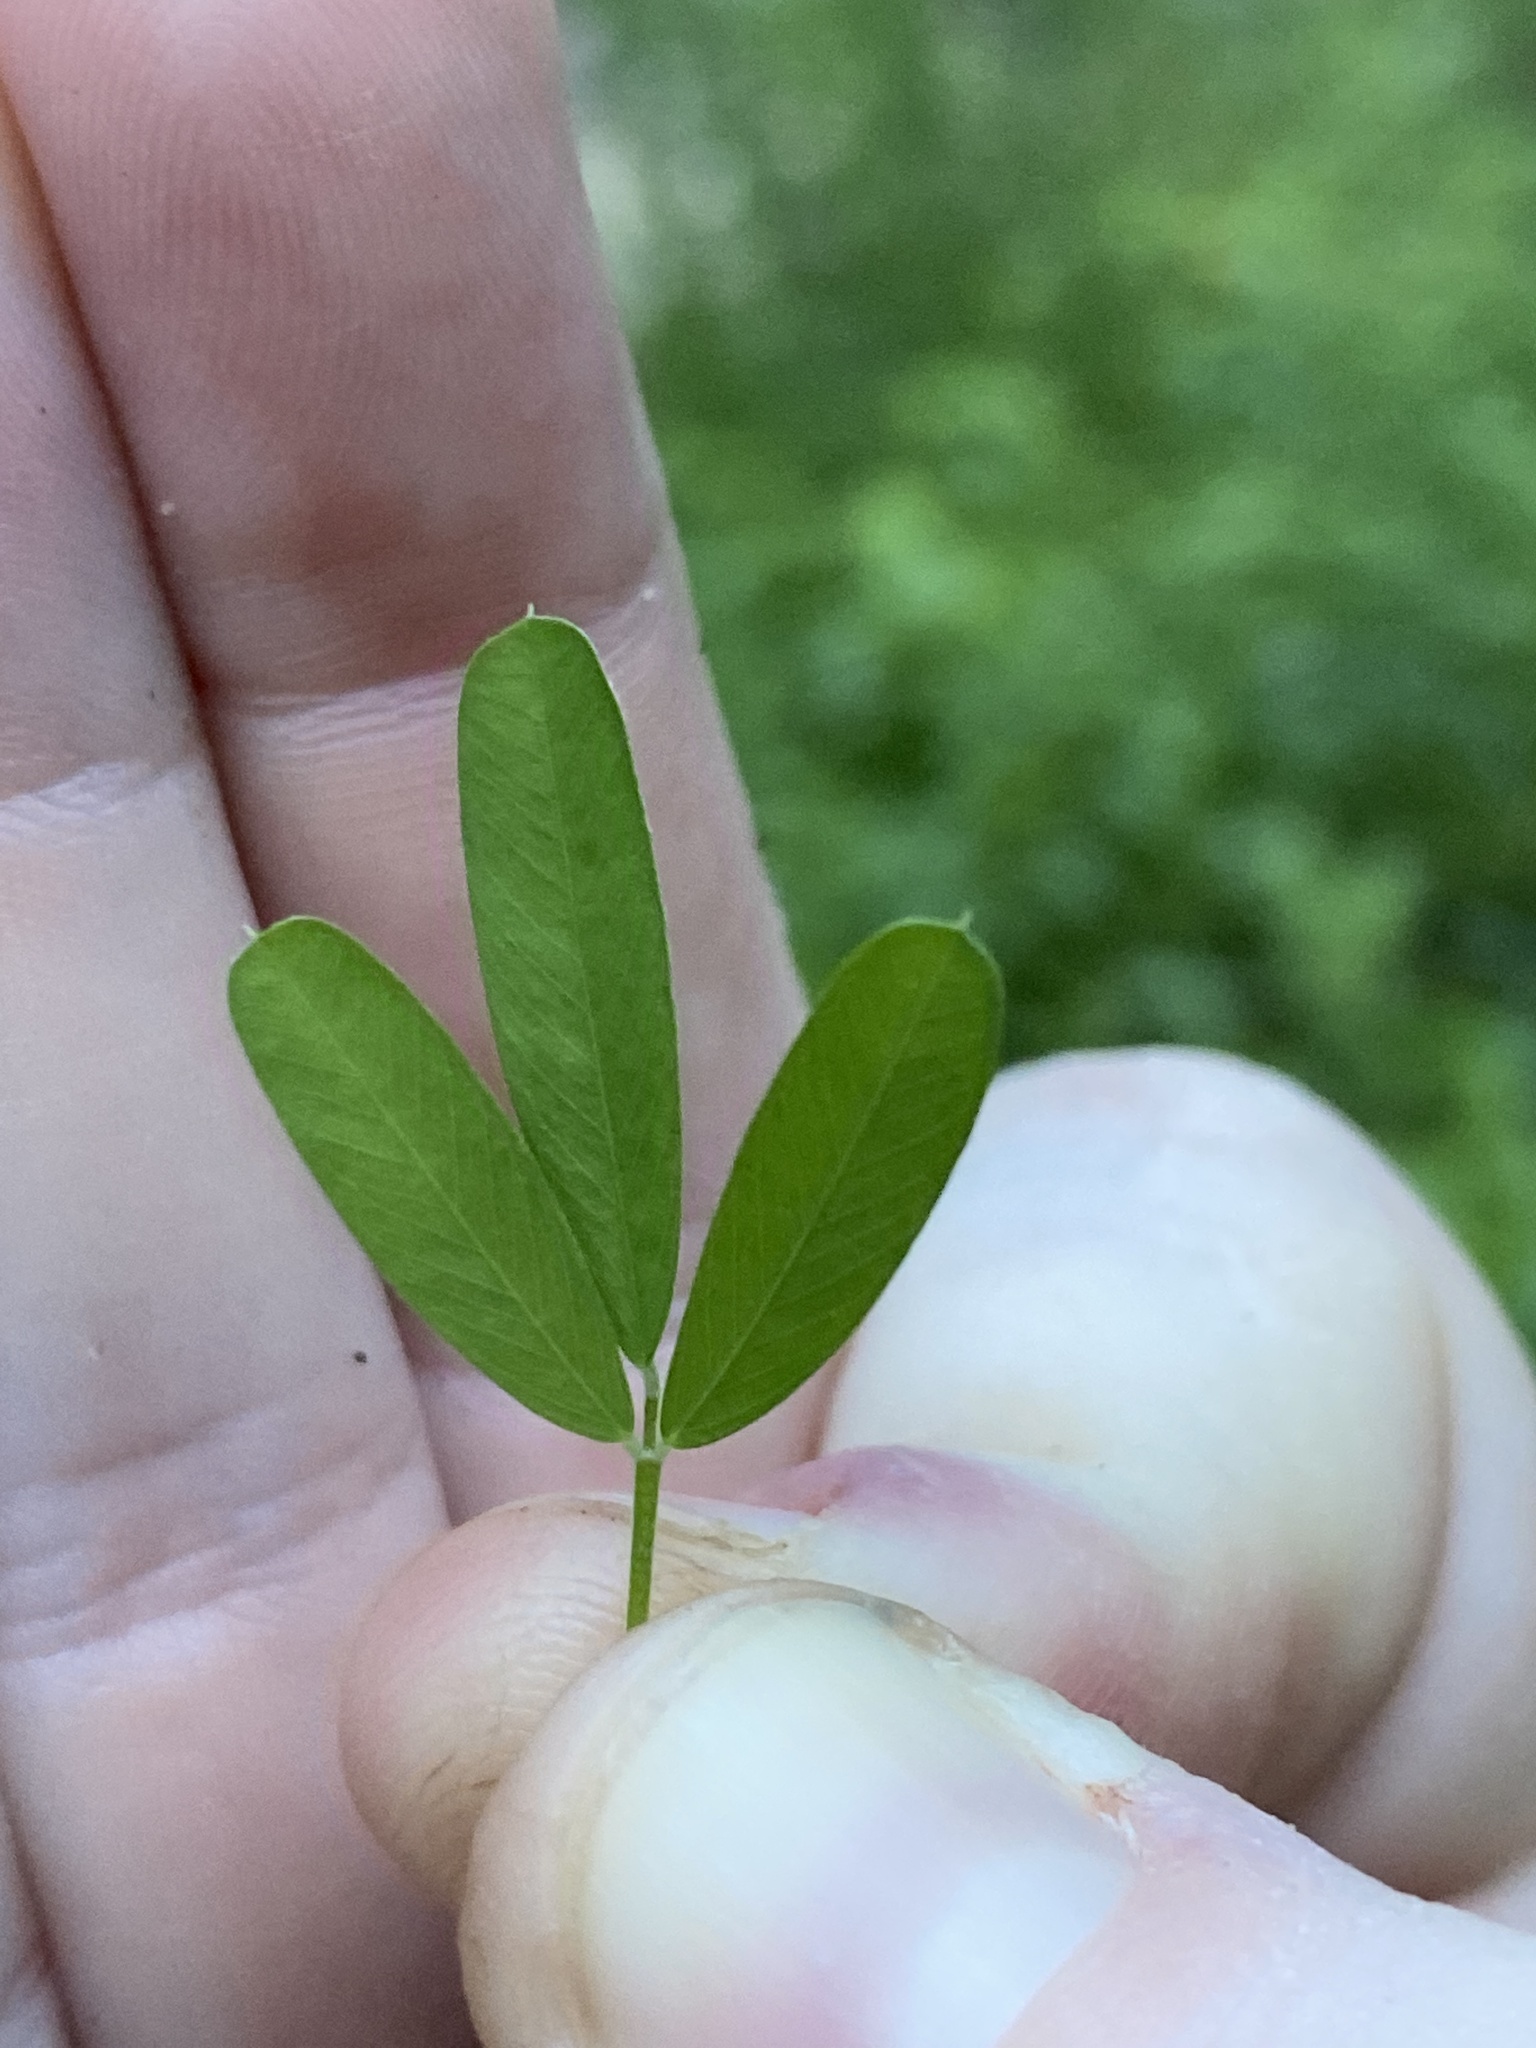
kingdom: Plantae
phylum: Tracheophyta
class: Magnoliopsida
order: Fabales
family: Fabaceae
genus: Lespedeza
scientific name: Lespedeza cuneata
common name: Chinese bush-clover
